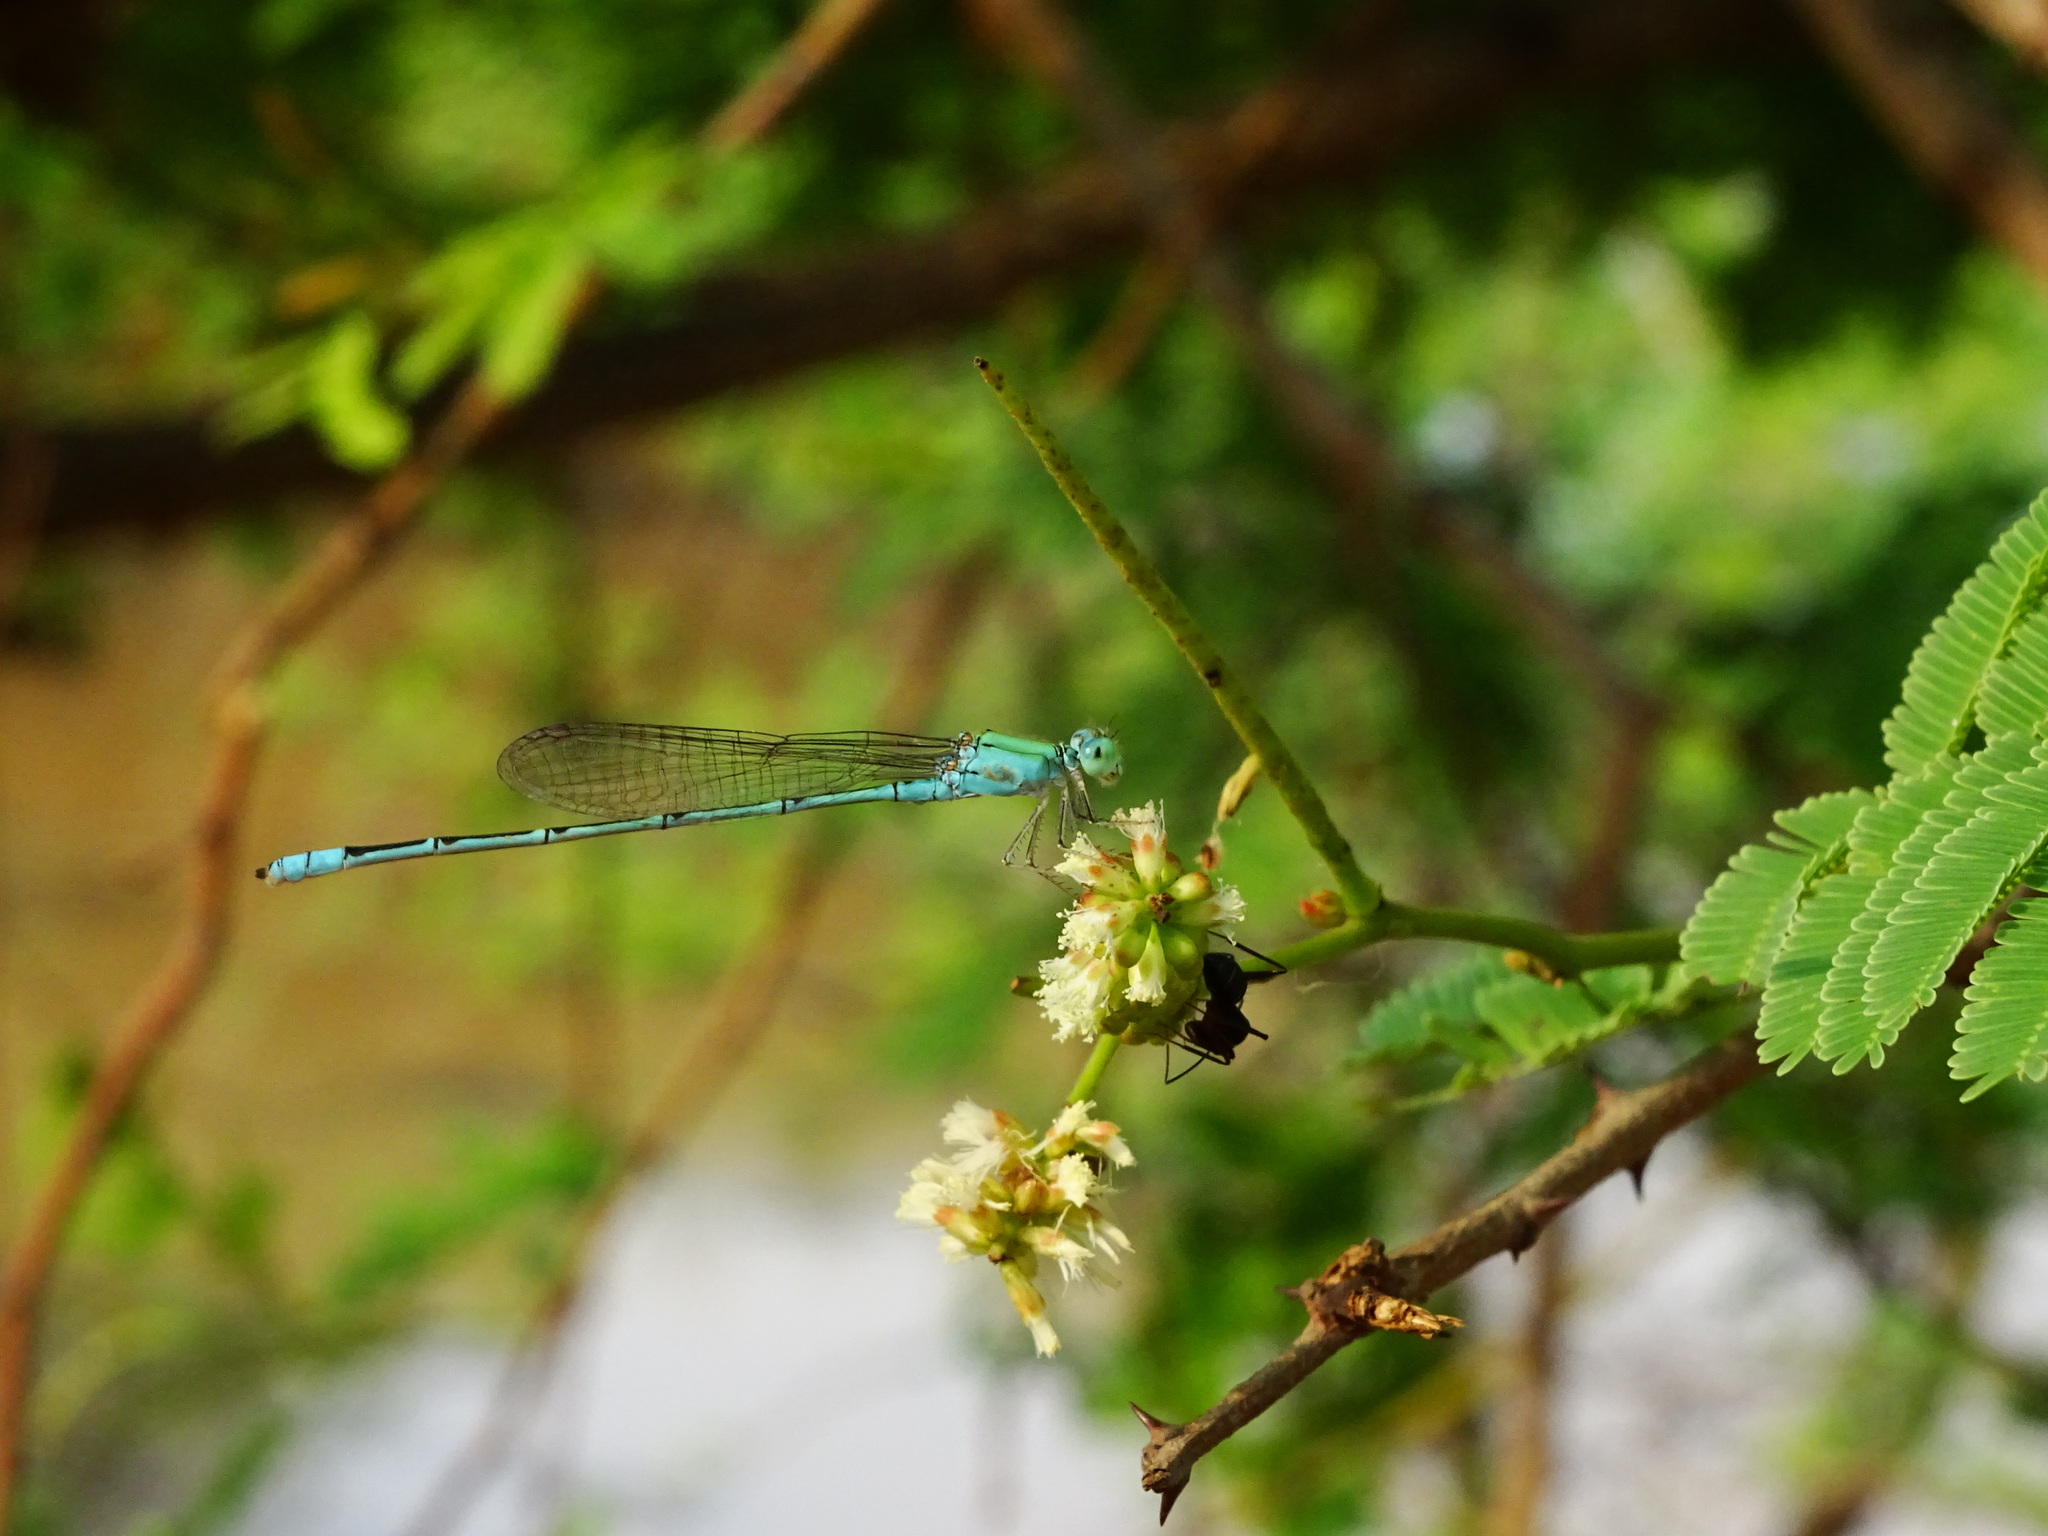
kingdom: Animalia
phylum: Arthropoda
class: Insecta
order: Odonata
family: Coenagrionidae
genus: Pseudagrion
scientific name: Pseudagrion decorum
